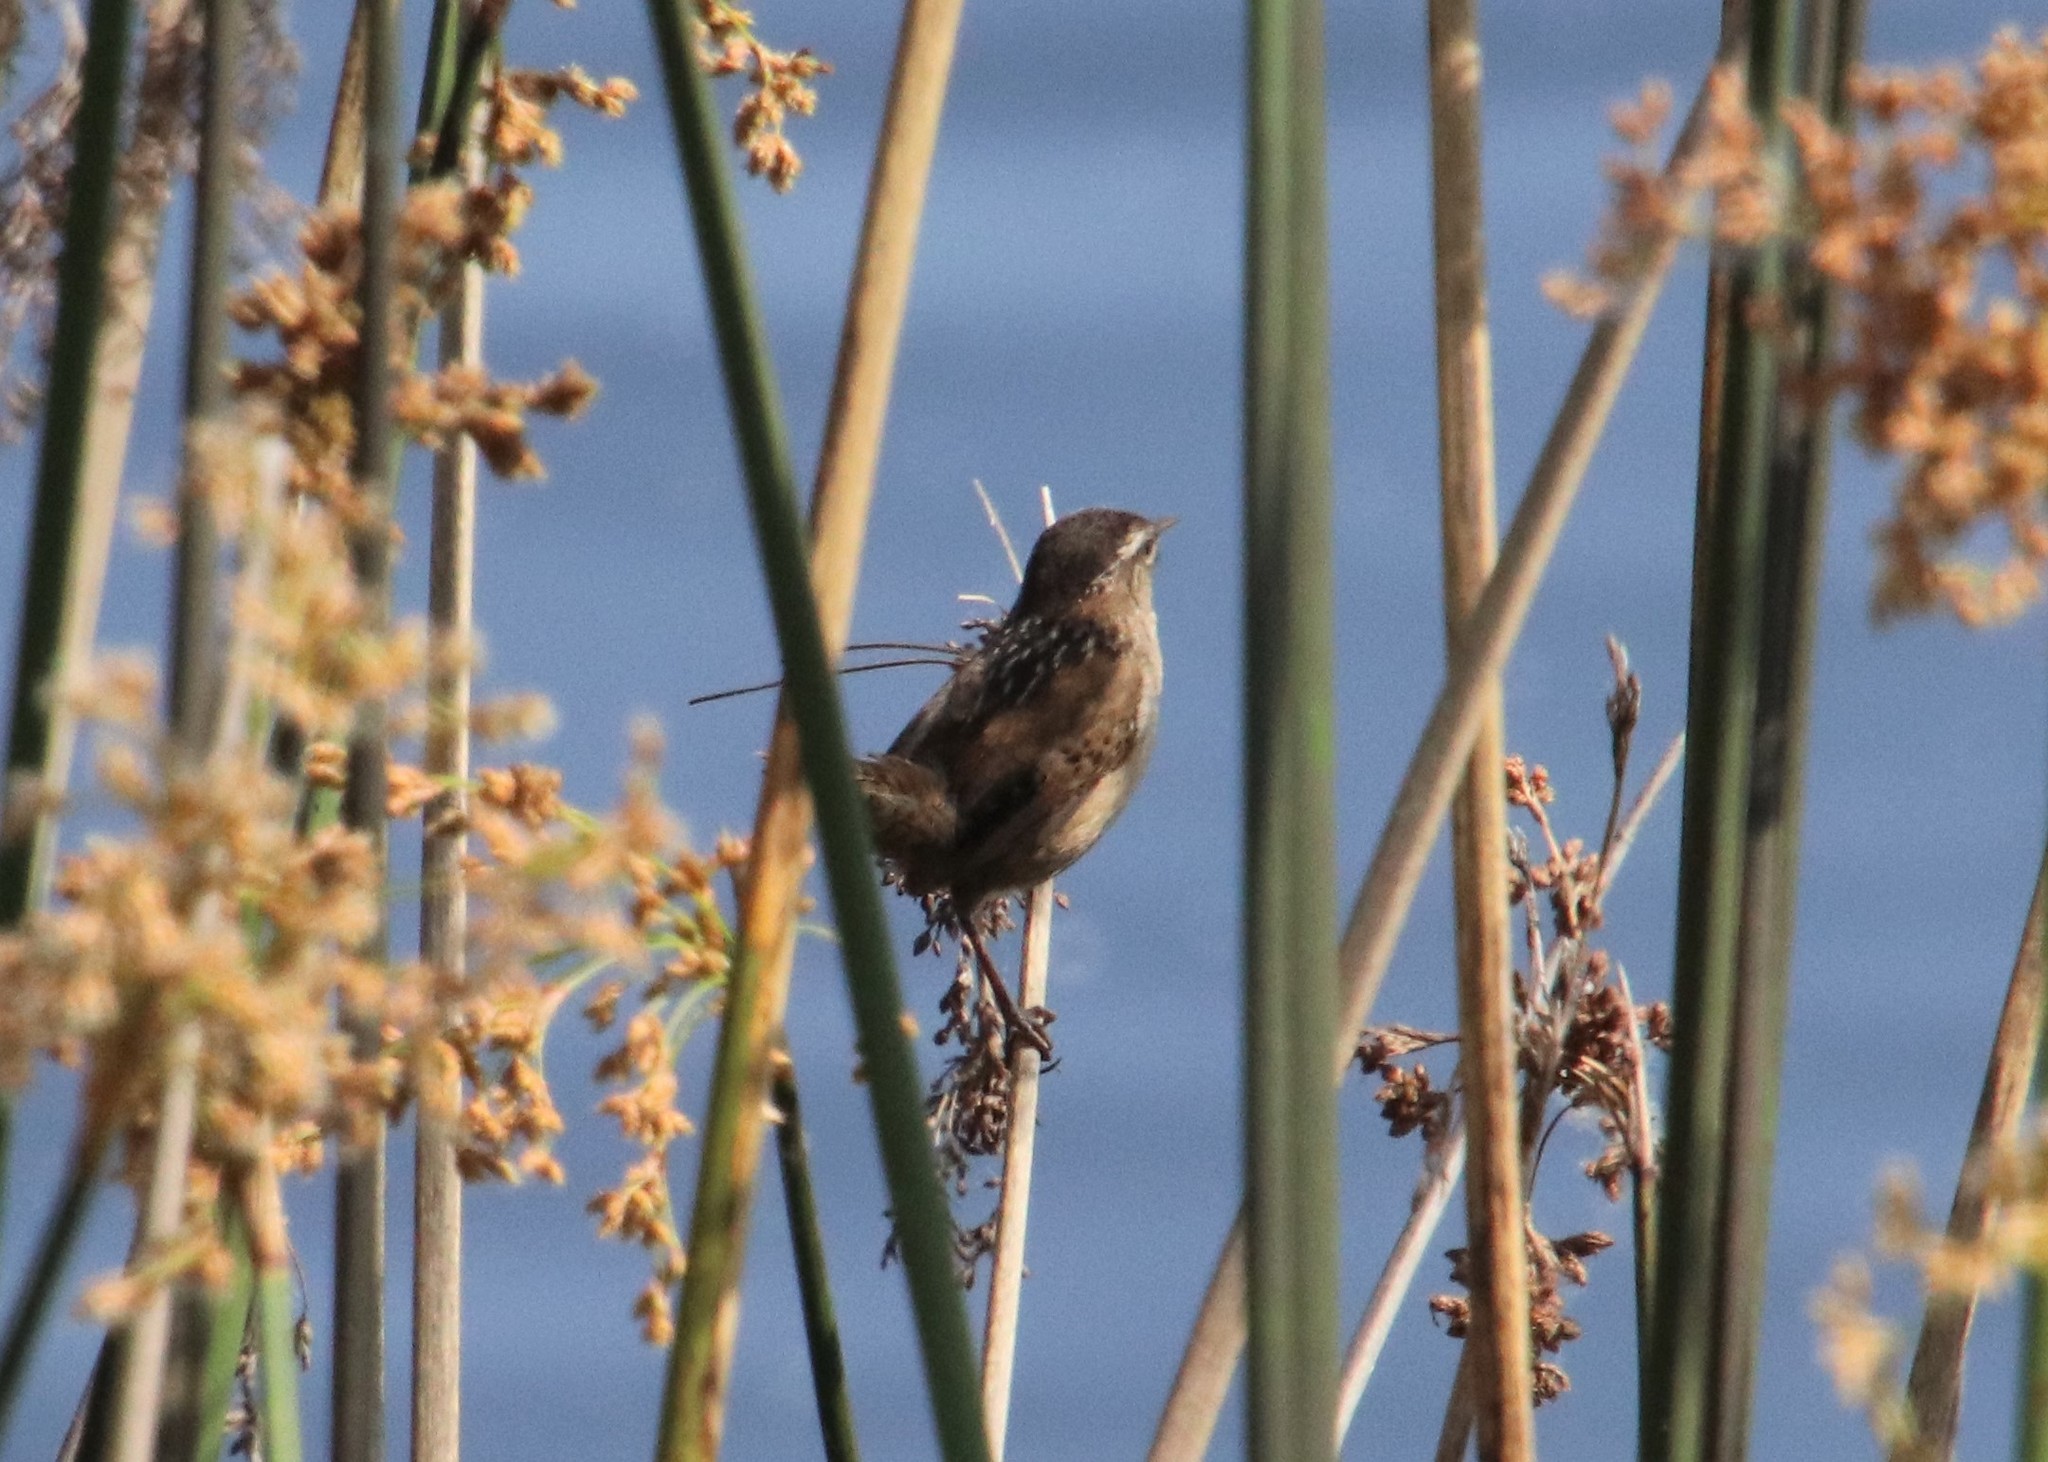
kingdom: Animalia
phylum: Chordata
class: Aves
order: Passeriformes
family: Troglodytidae
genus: Cistothorus
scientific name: Cistothorus palustris
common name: Marsh wren
